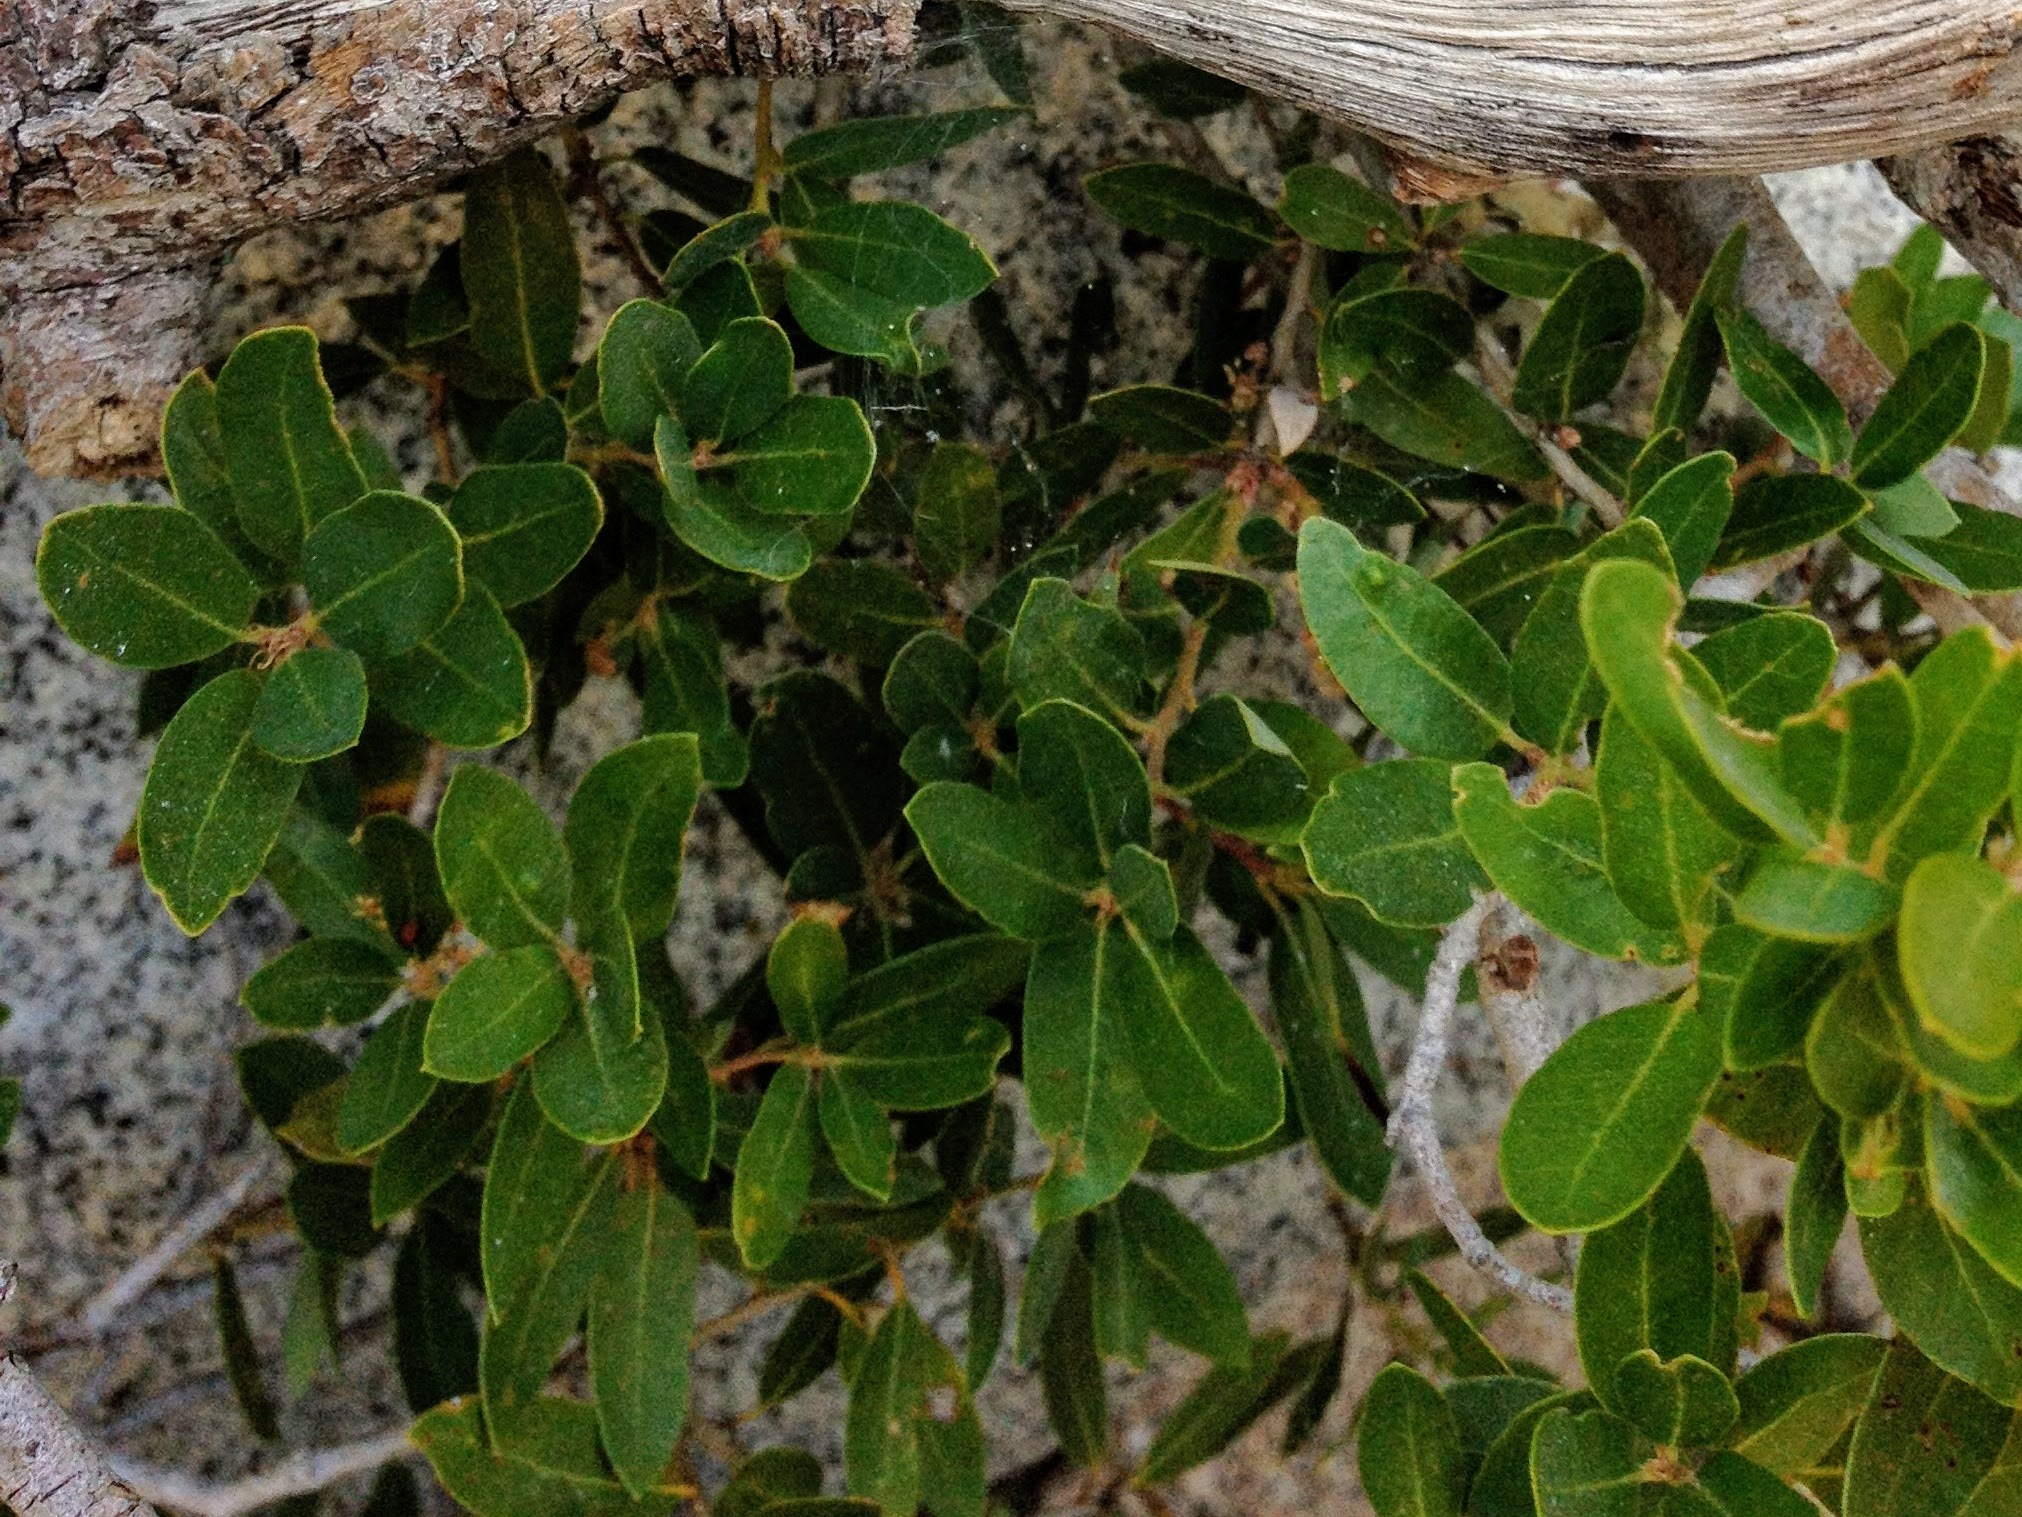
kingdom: Plantae
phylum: Tracheophyta
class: Magnoliopsida
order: Fagales
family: Fagaceae
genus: Quercus
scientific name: Quercus vacciniifolia
